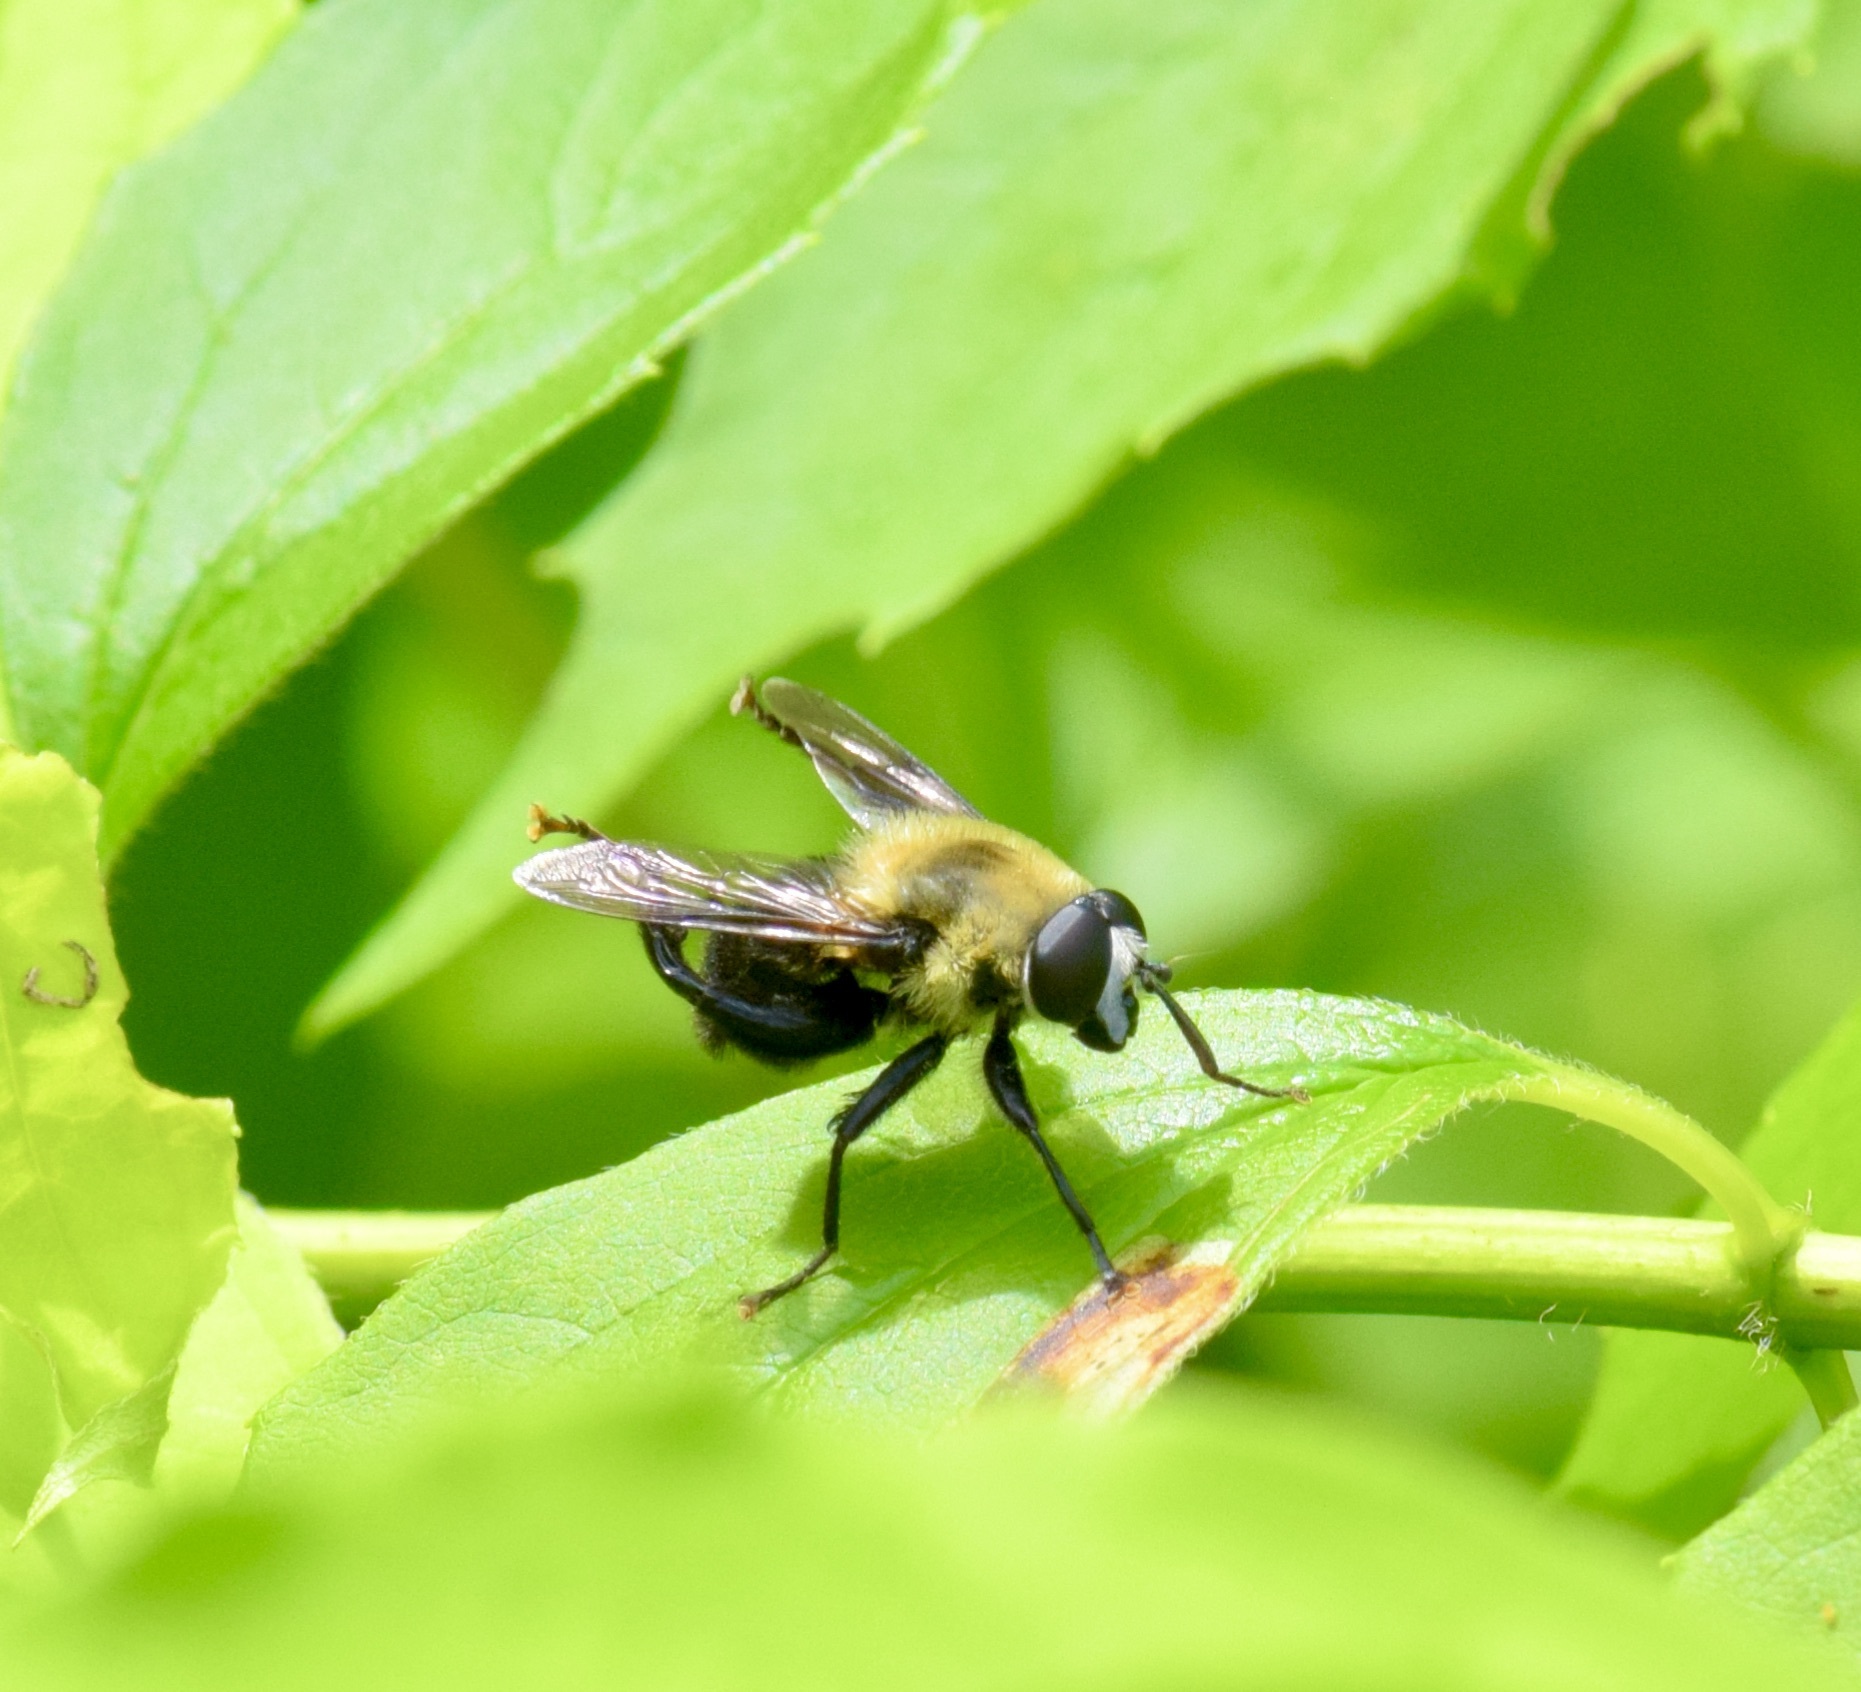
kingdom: Animalia
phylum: Arthropoda
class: Insecta
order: Diptera
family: Syrphidae
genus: Imatisma
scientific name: Imatisma bautias
